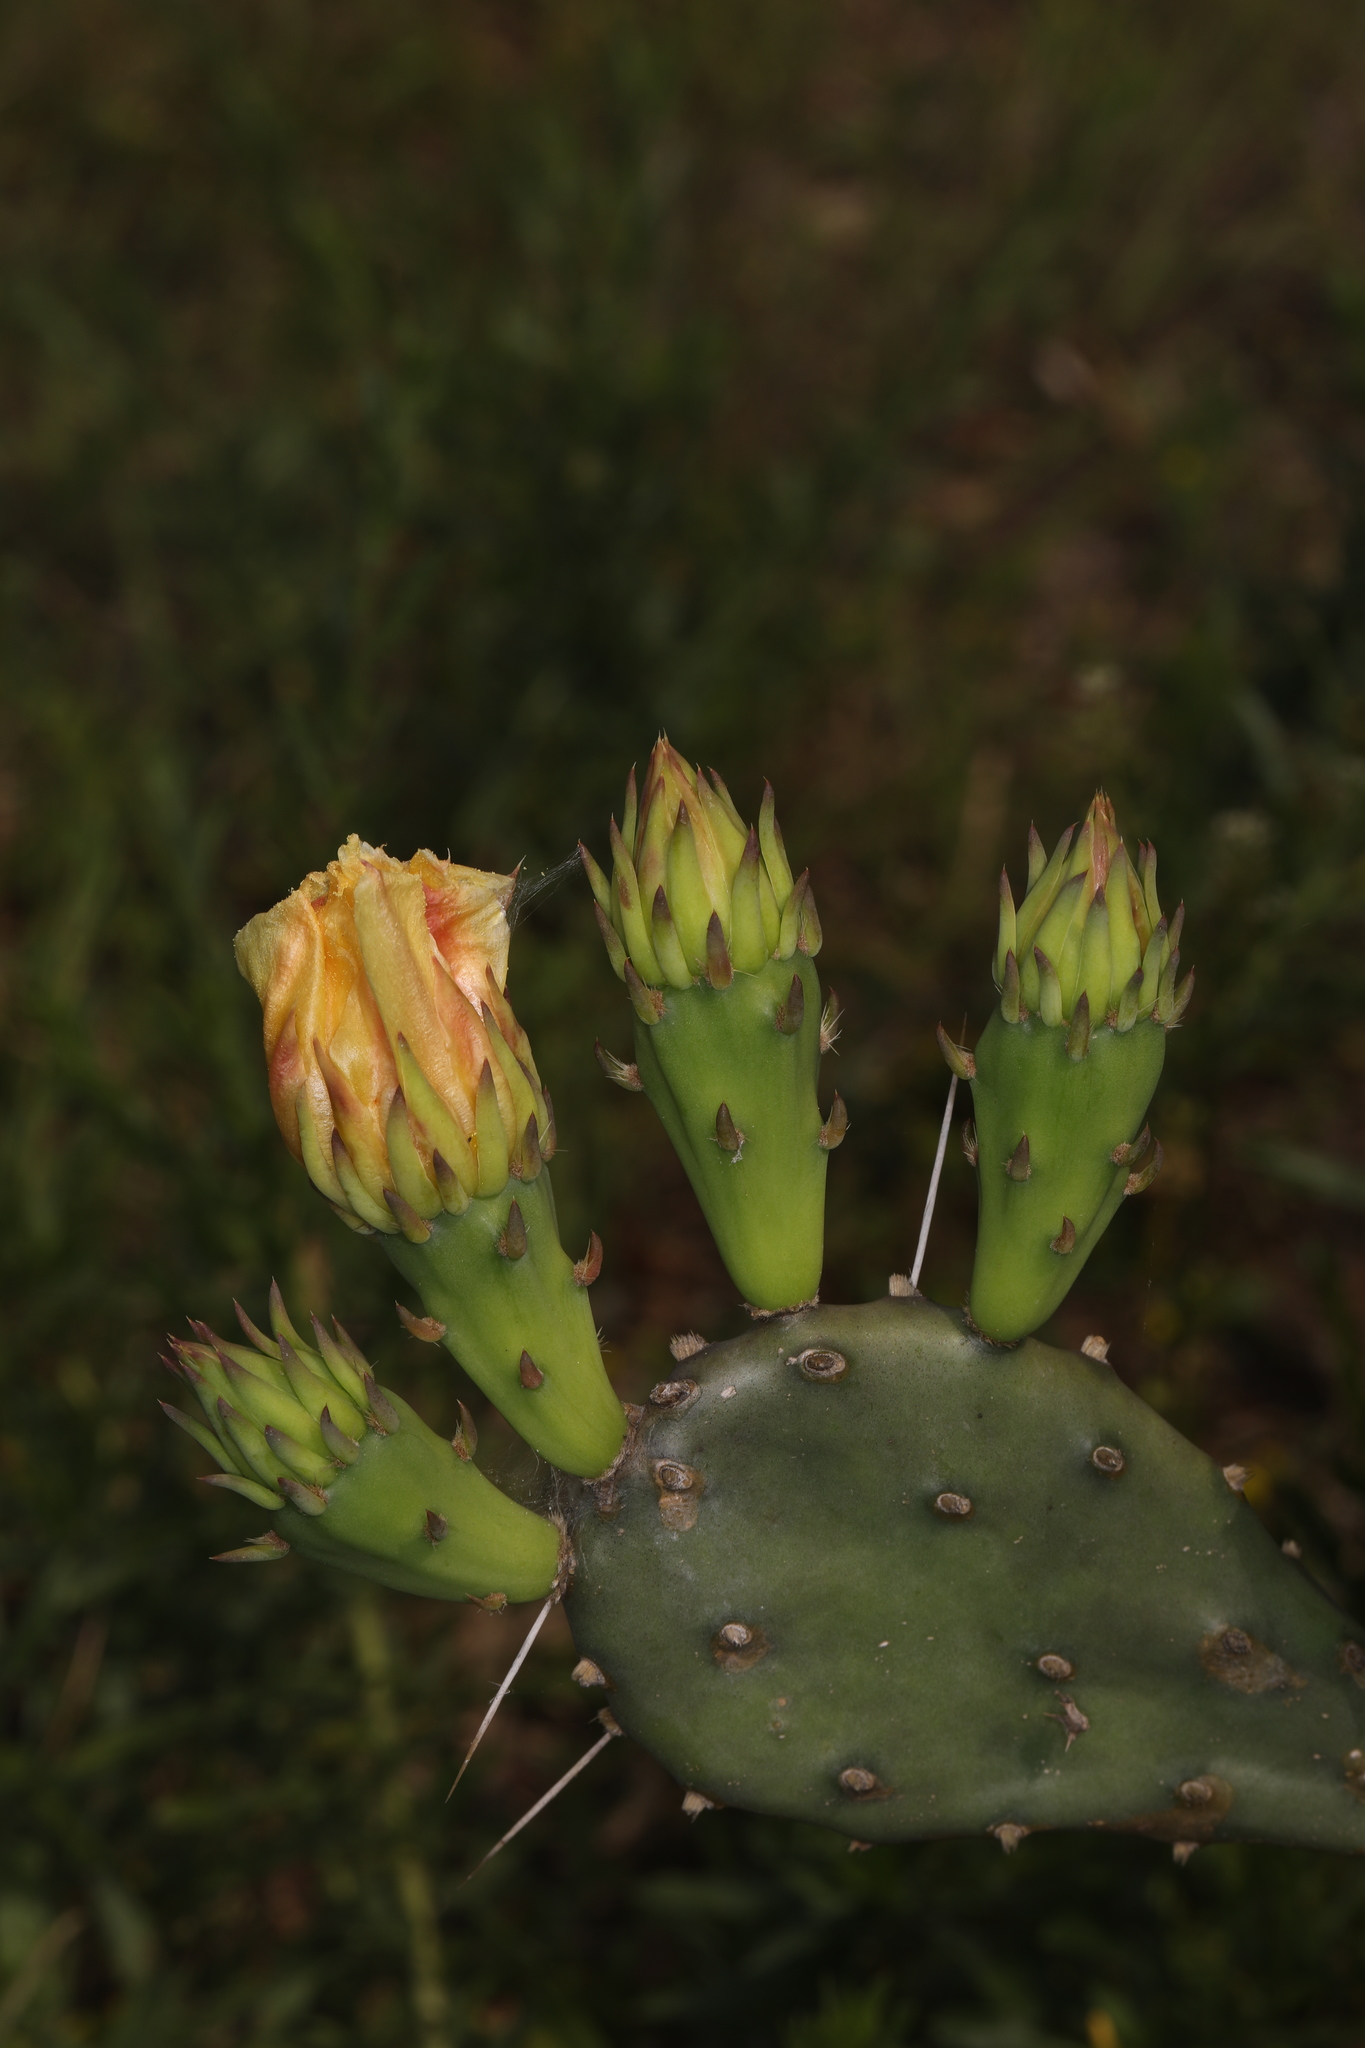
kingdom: Plantae
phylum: Tracheophyta
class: Magnoliopsida
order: Caryophyllales
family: Cactaceae
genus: Opuntia
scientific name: Opuntia austrina
